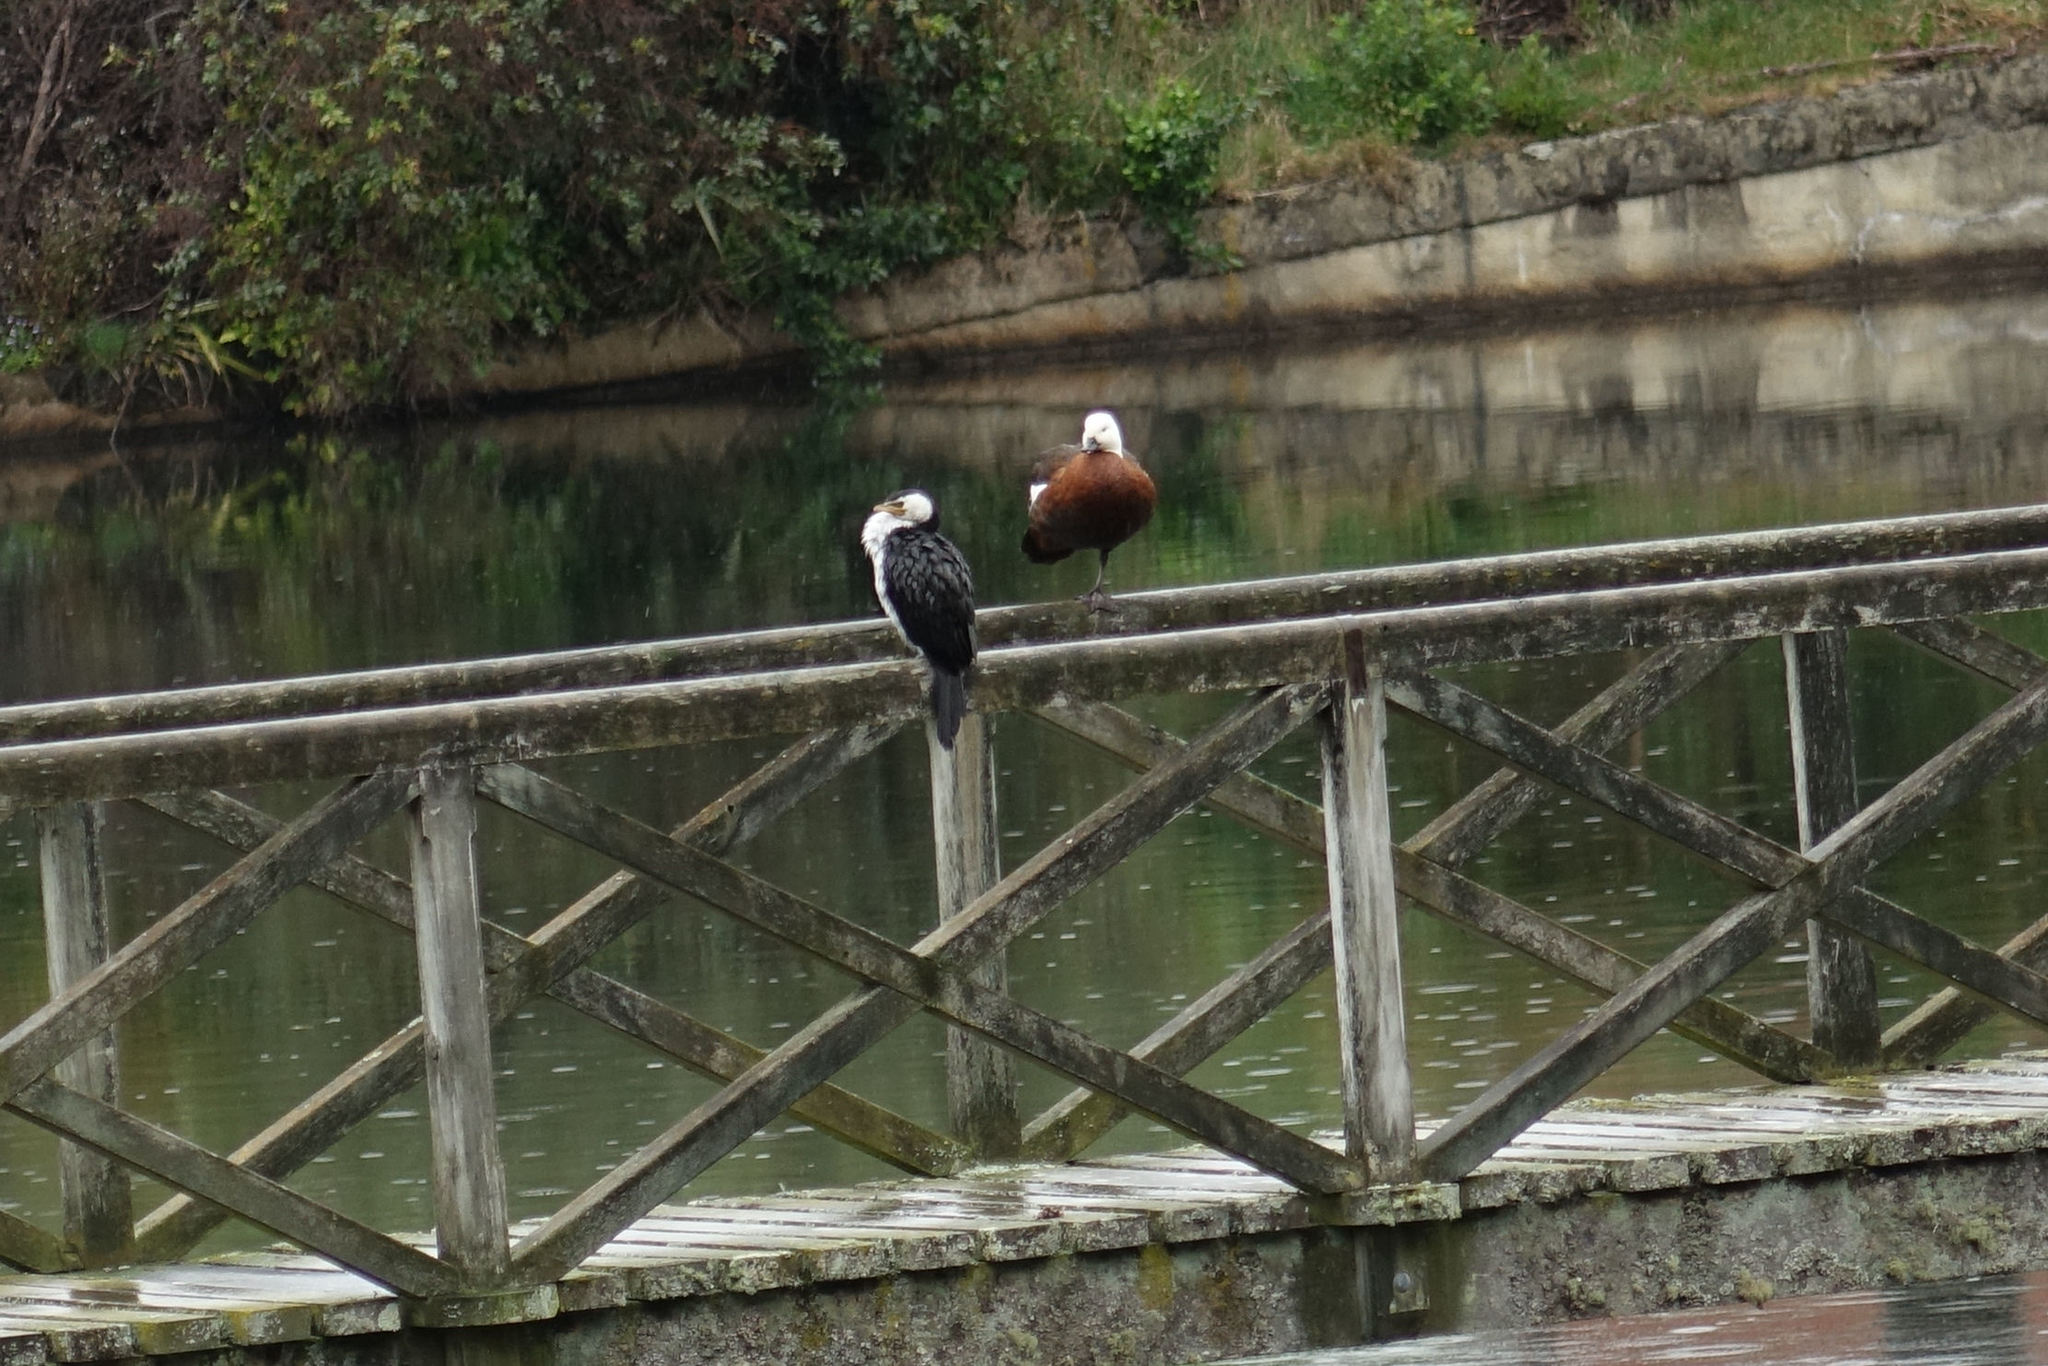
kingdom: Animalia
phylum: Chordata
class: Aves
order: Suliformes
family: Phalacrocoracidae
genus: Microcarbo
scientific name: Microcarbo melanoleucos
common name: Little pied cormorant
